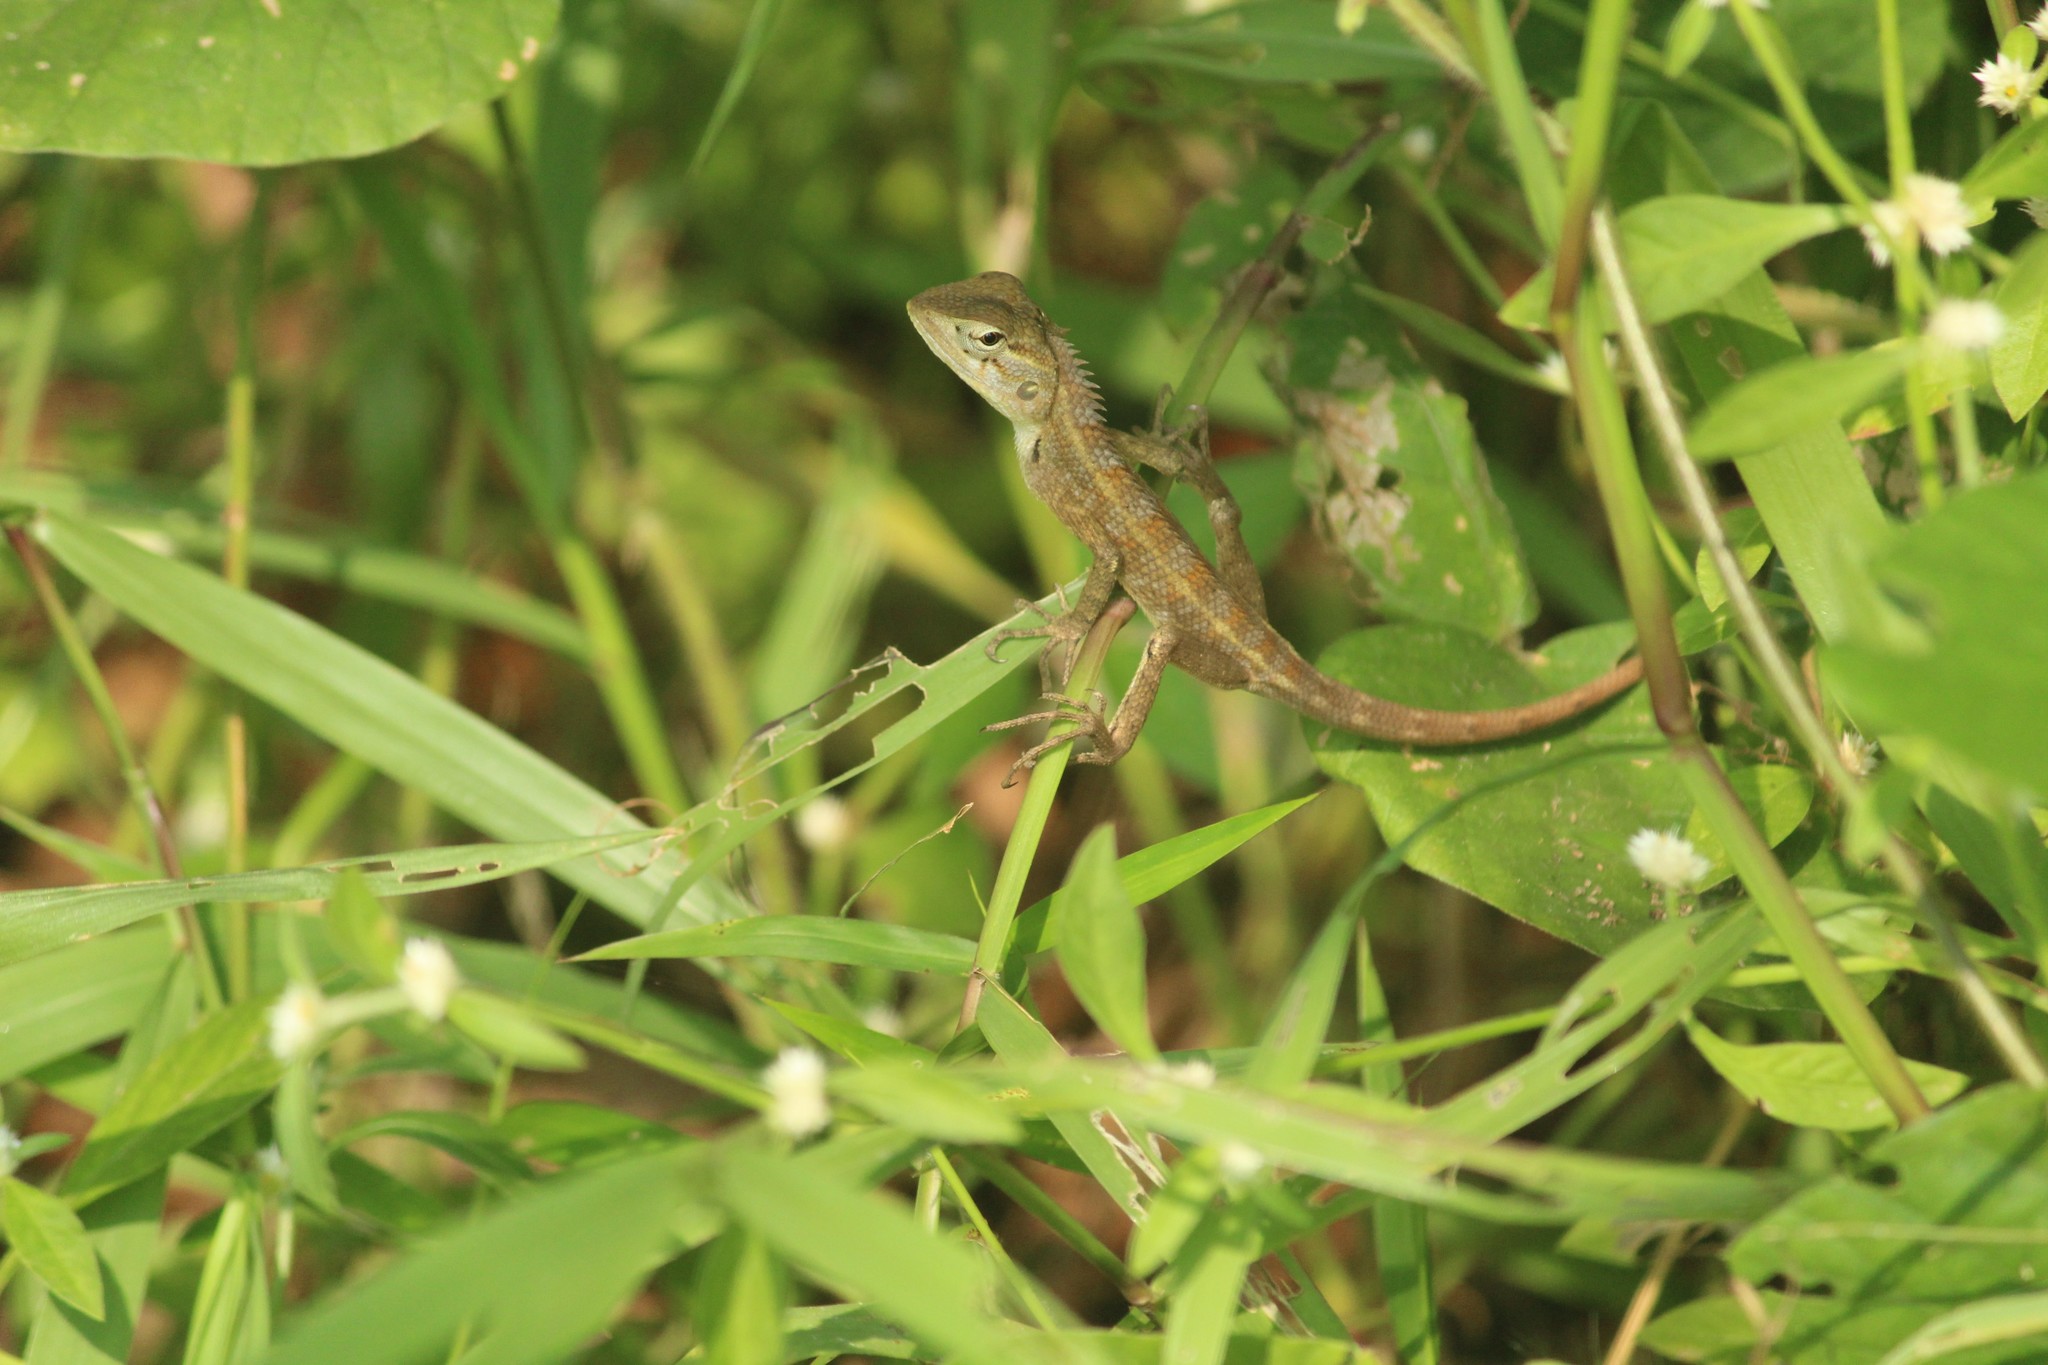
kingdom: Animalia
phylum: Chordata
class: Squamata
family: Agamidae
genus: Calotes
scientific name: Calotes versicolor
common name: Oriental garden lizard
